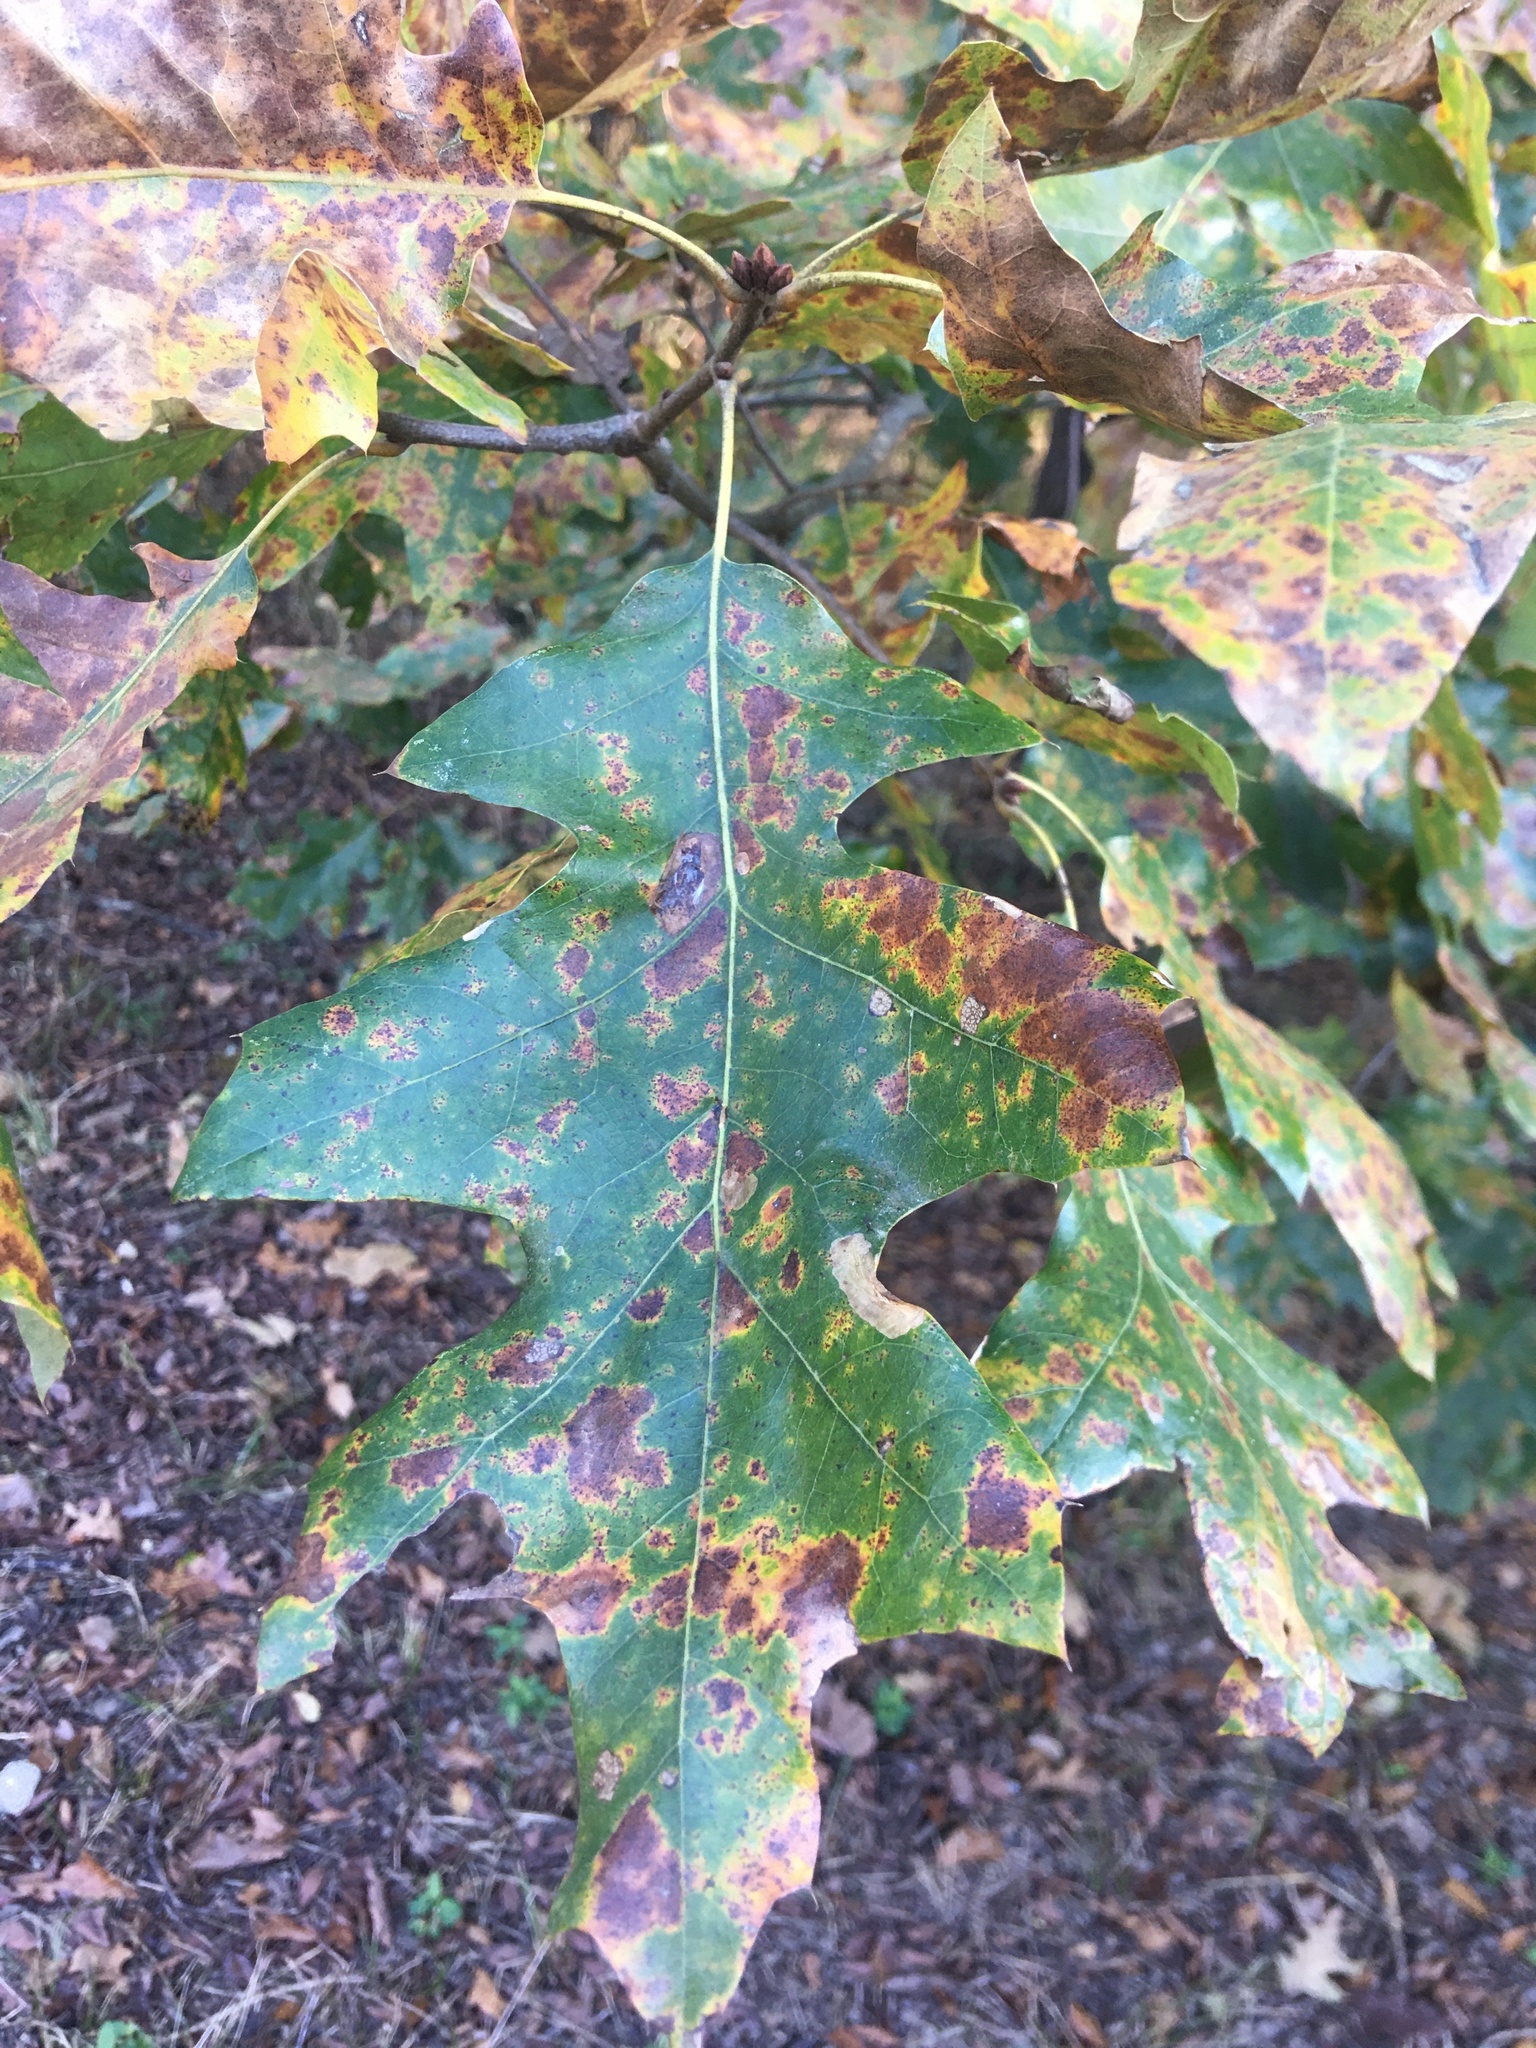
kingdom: Plantae
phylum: Tracheophyta
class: Magnoliopsida
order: Fagales
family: Fagaceae
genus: Quercus
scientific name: Quercus pagoda
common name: Cherrybark oak
